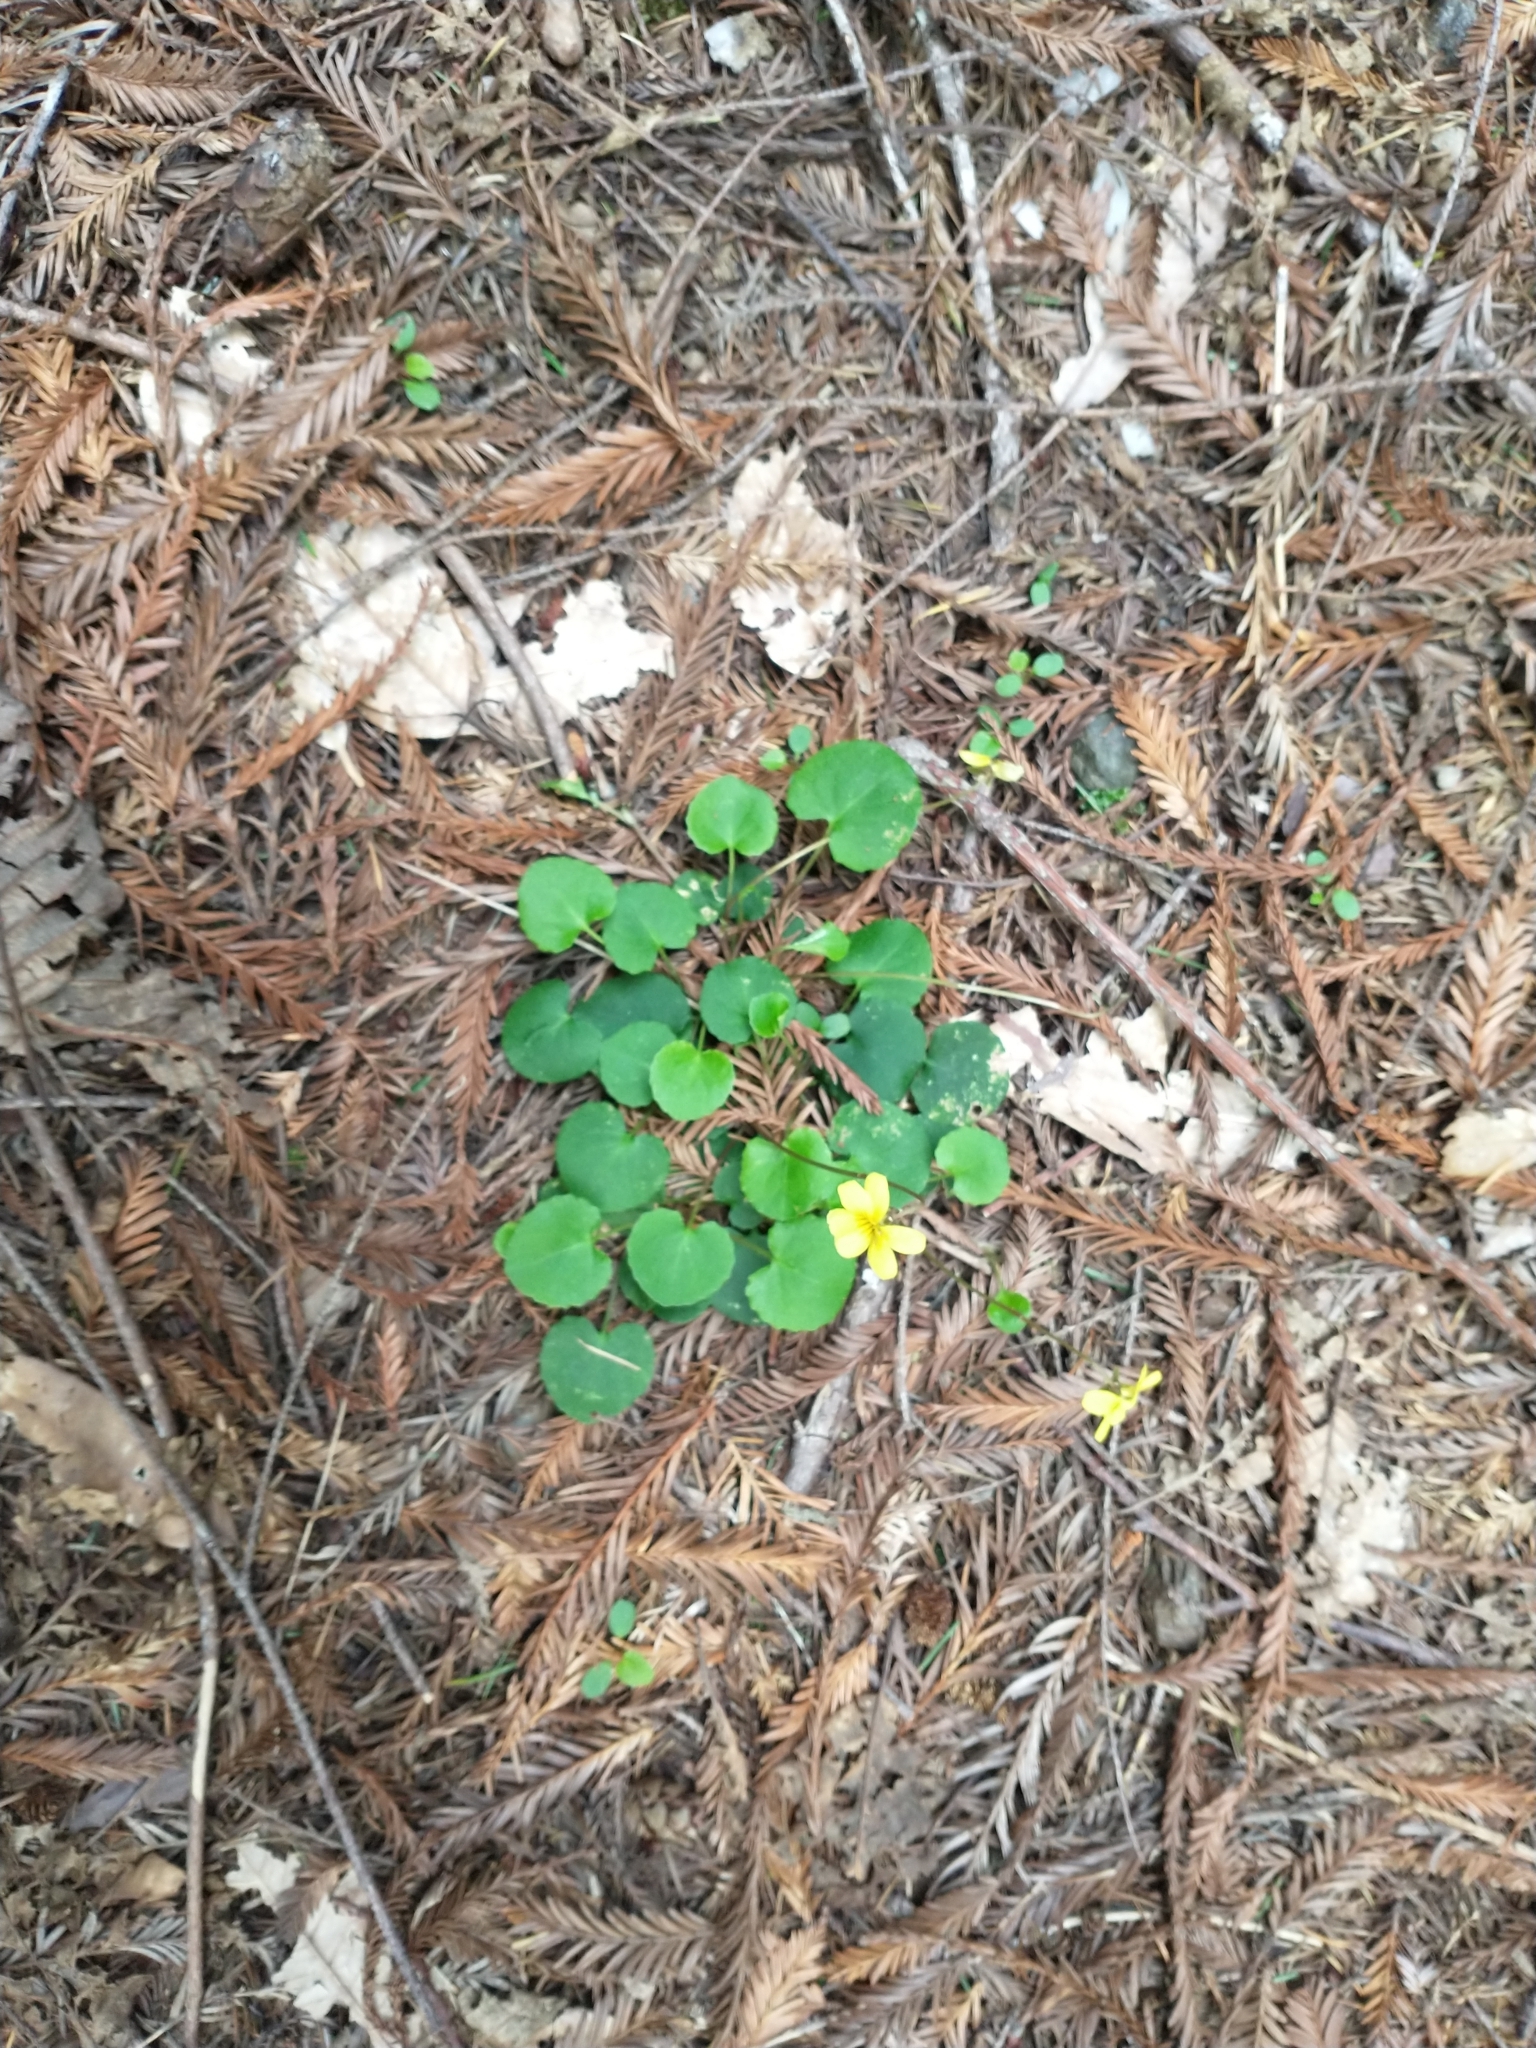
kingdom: Plantae
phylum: Tracheophyta
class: Magnoliopsida
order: Malpighiales
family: Violaceae
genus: Viola
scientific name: Viola sempervirens
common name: Evergreen violet
